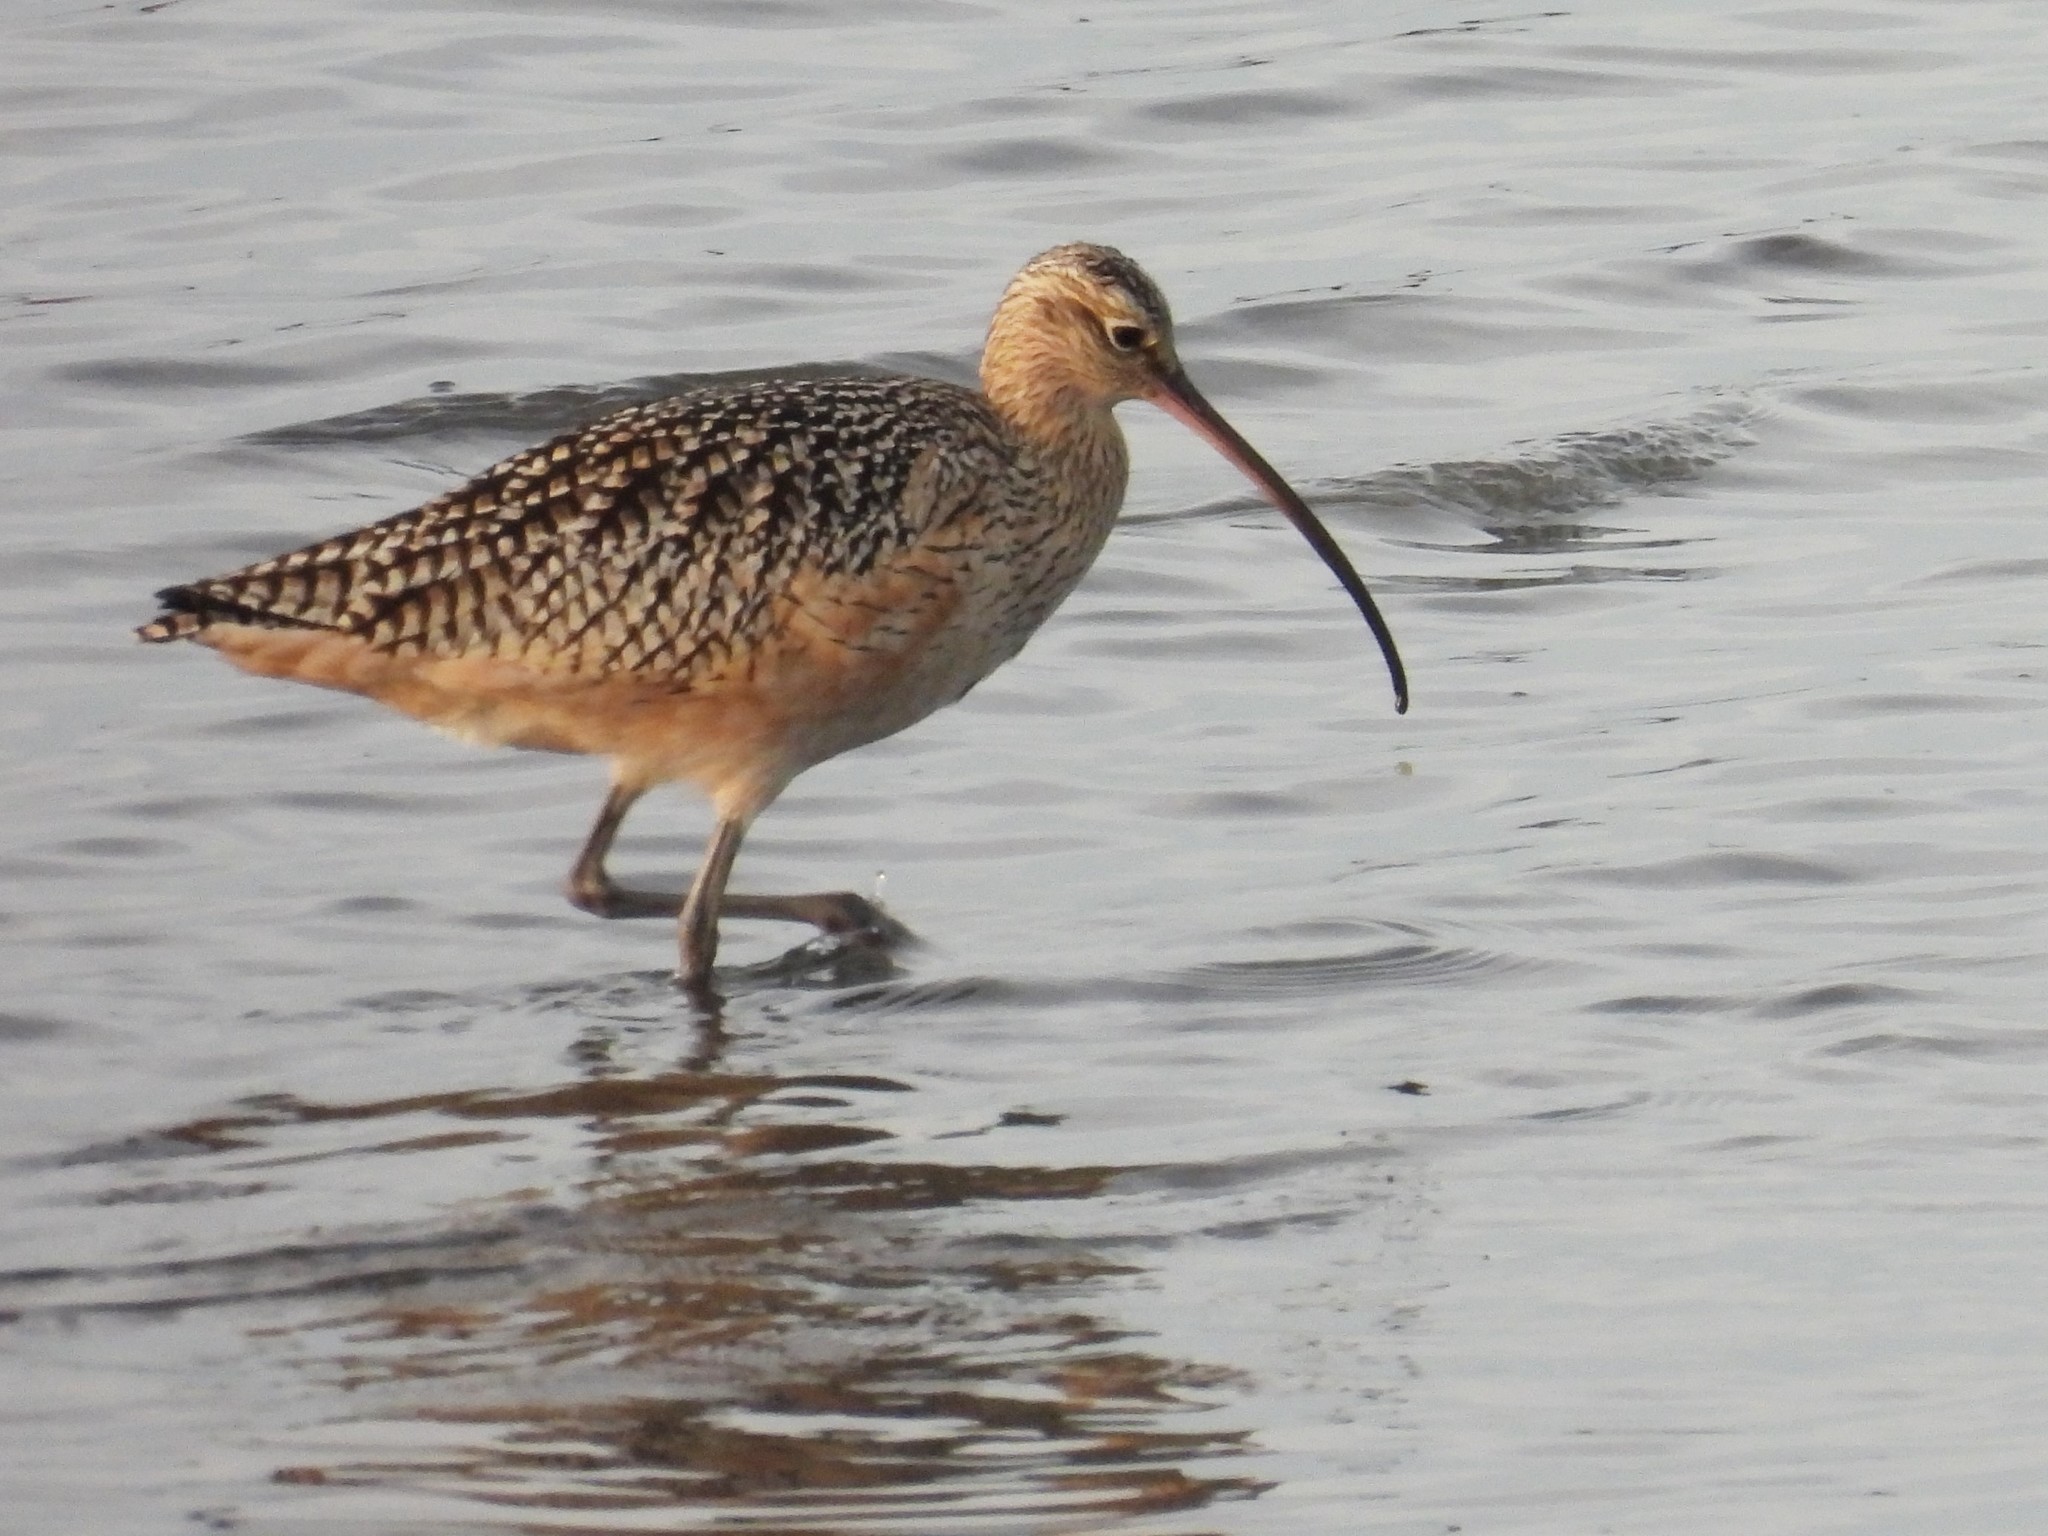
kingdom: Animalia
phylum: Chordata
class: Aves
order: Charadriiformes
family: Scolopacidae
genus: Numenius
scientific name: Numenius americanus
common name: Long-billed curlew
